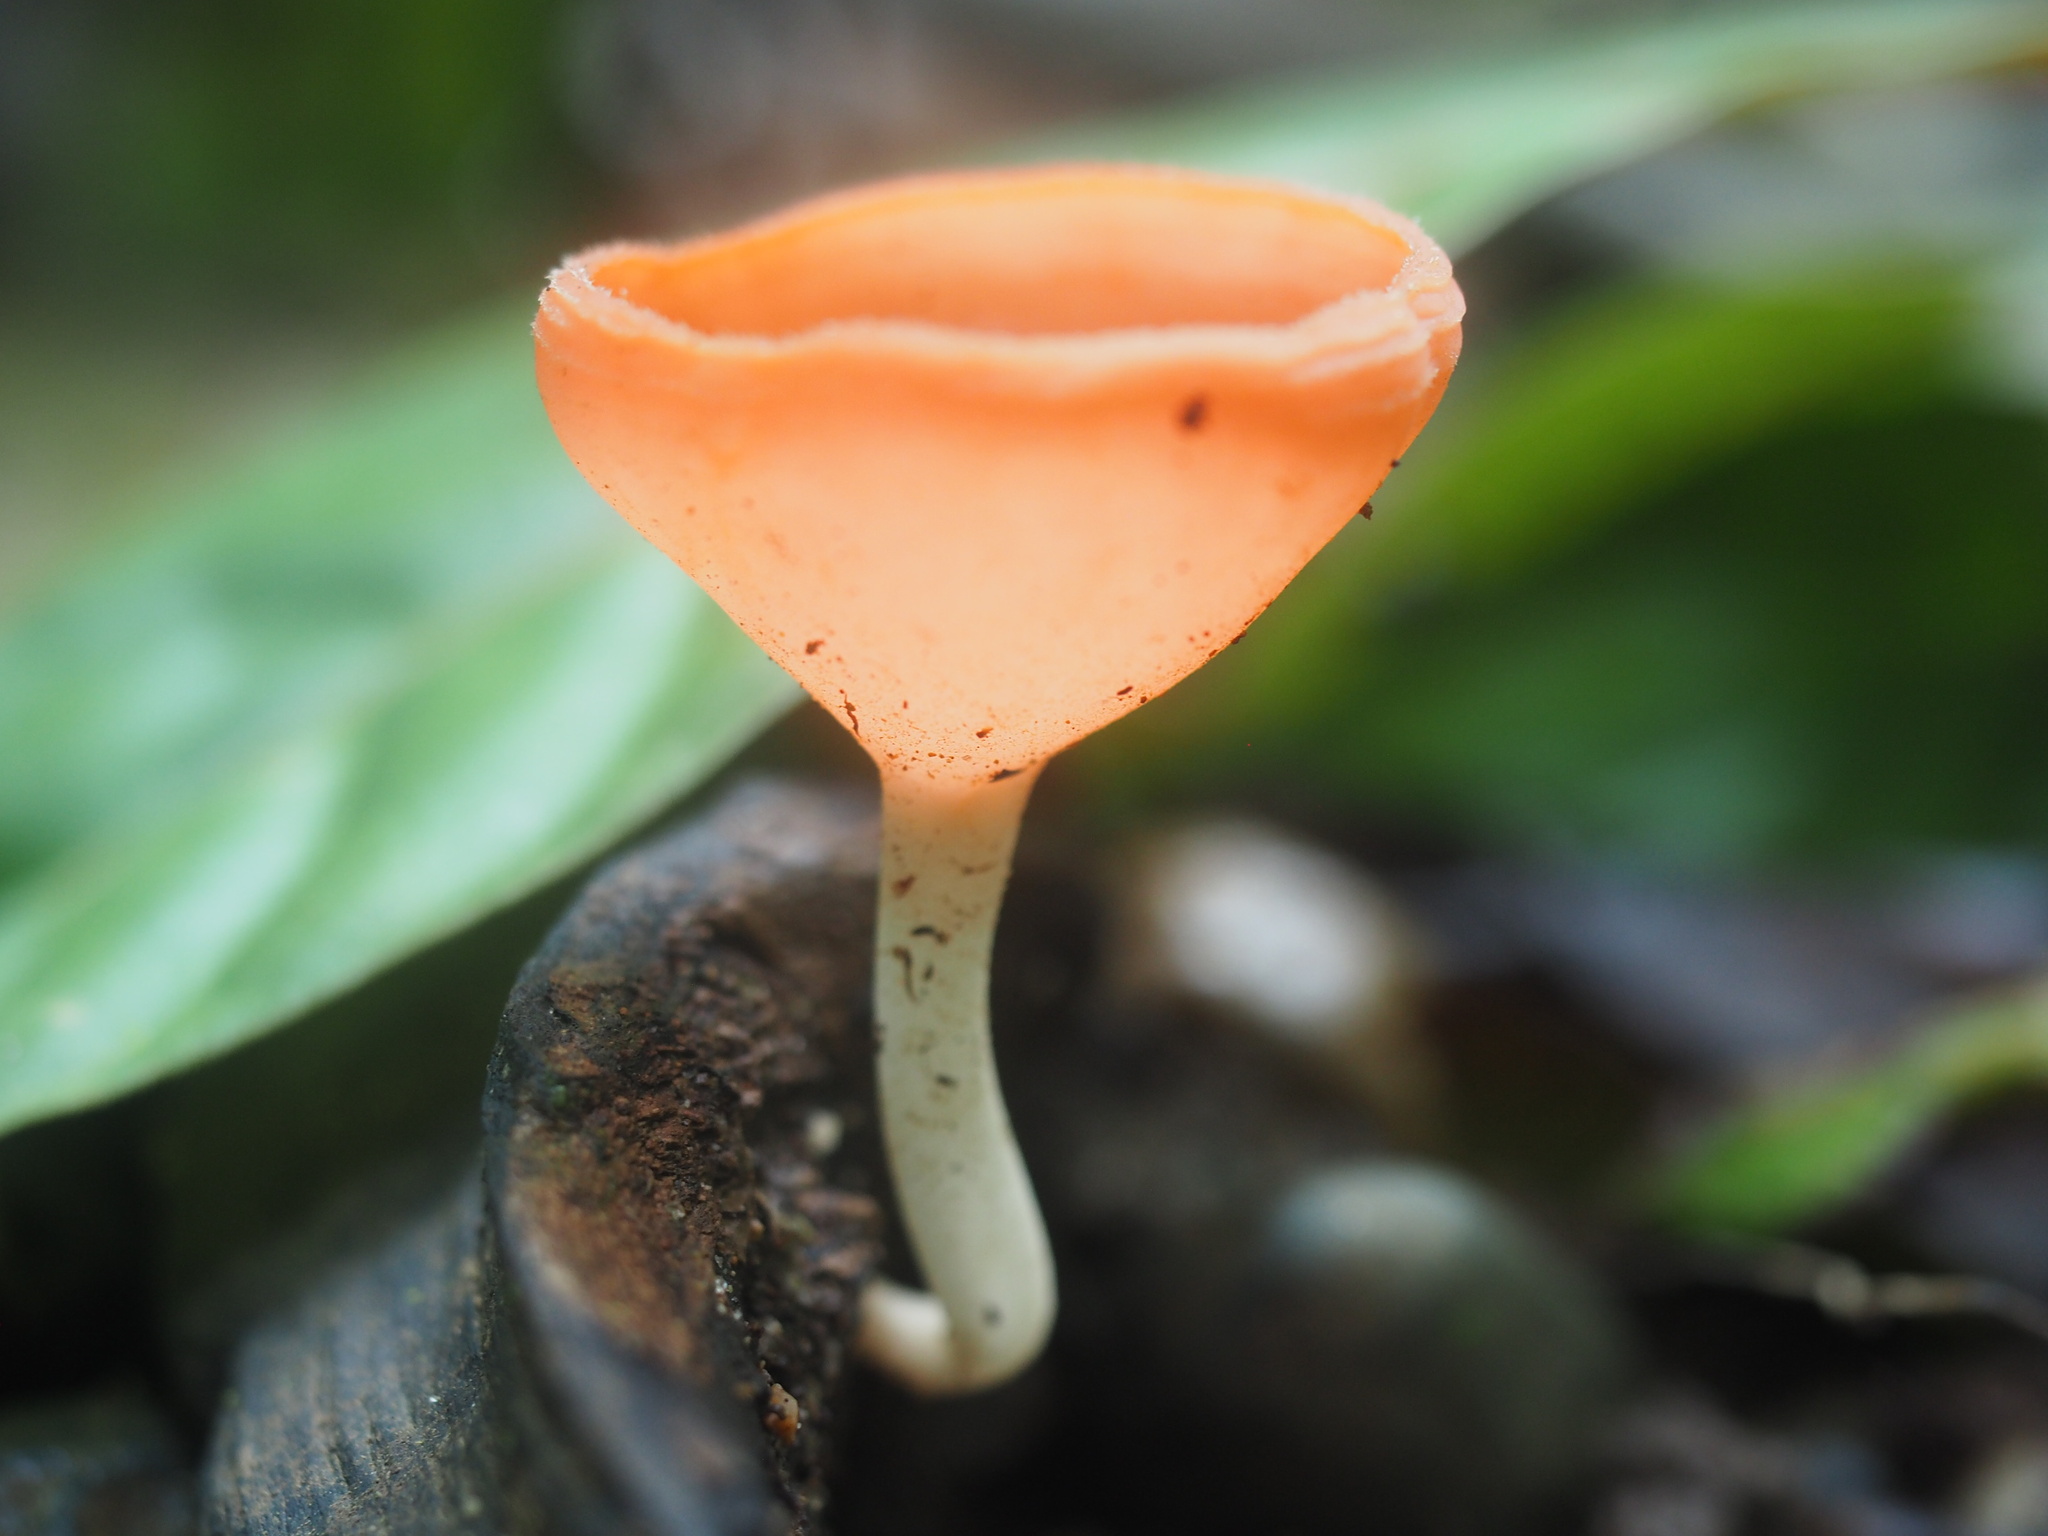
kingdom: Fungi
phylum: Ascomycota
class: Pezizomycetes
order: Pezizales
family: Sarcoscyphaceae
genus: Cookeina
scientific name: Cookeina speciosa
